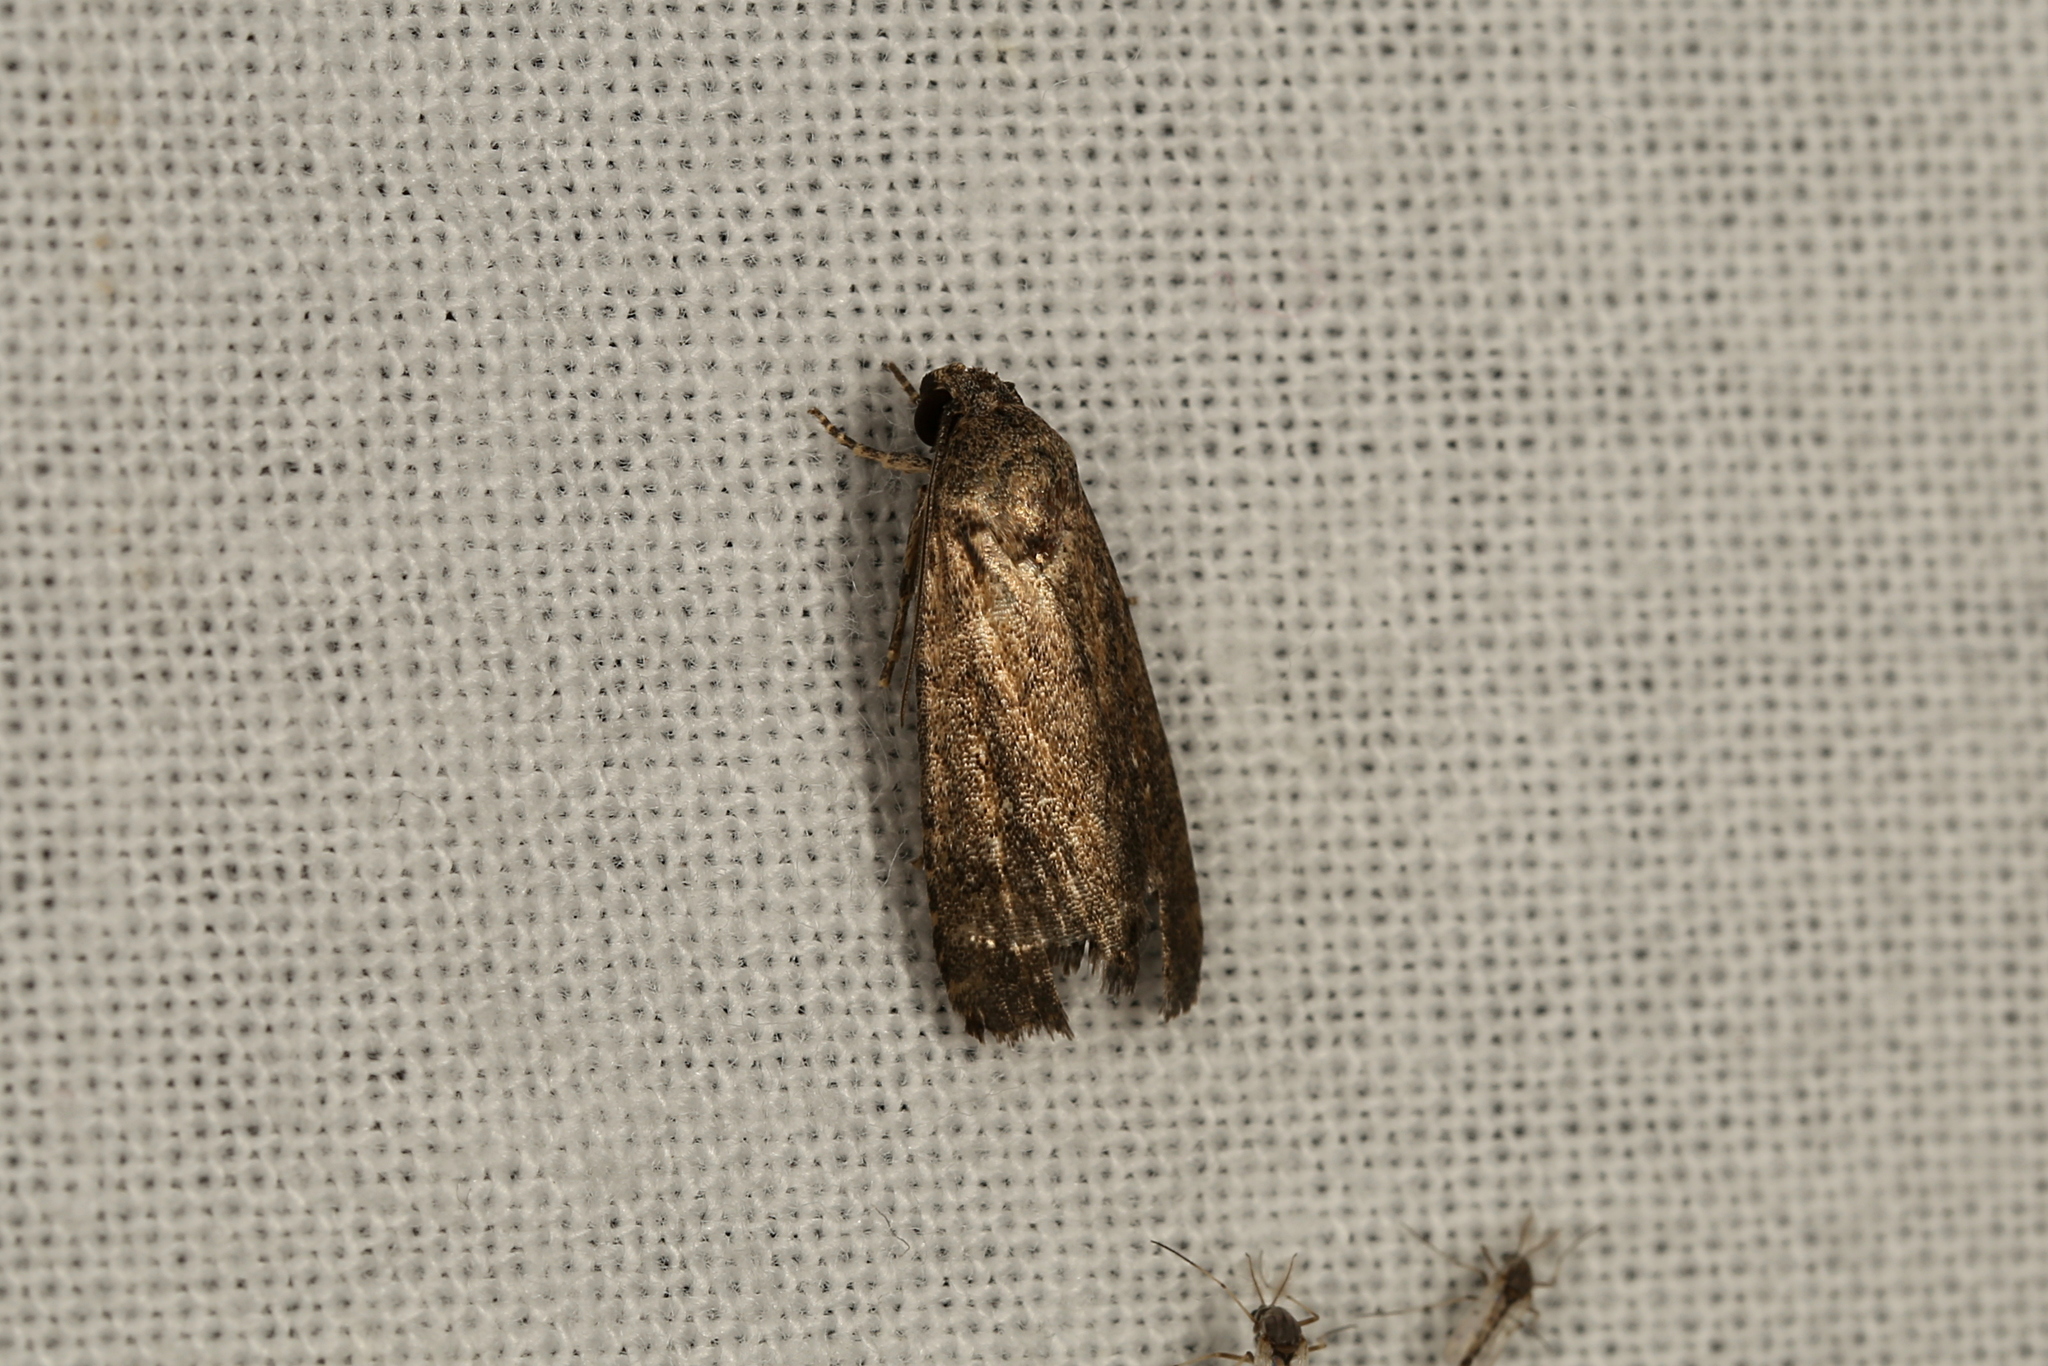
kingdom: Animalia
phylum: Arthropoda
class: Insecta
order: Lepidoptera
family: Noctuidae
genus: Athetis
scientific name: Athetis tenuis
